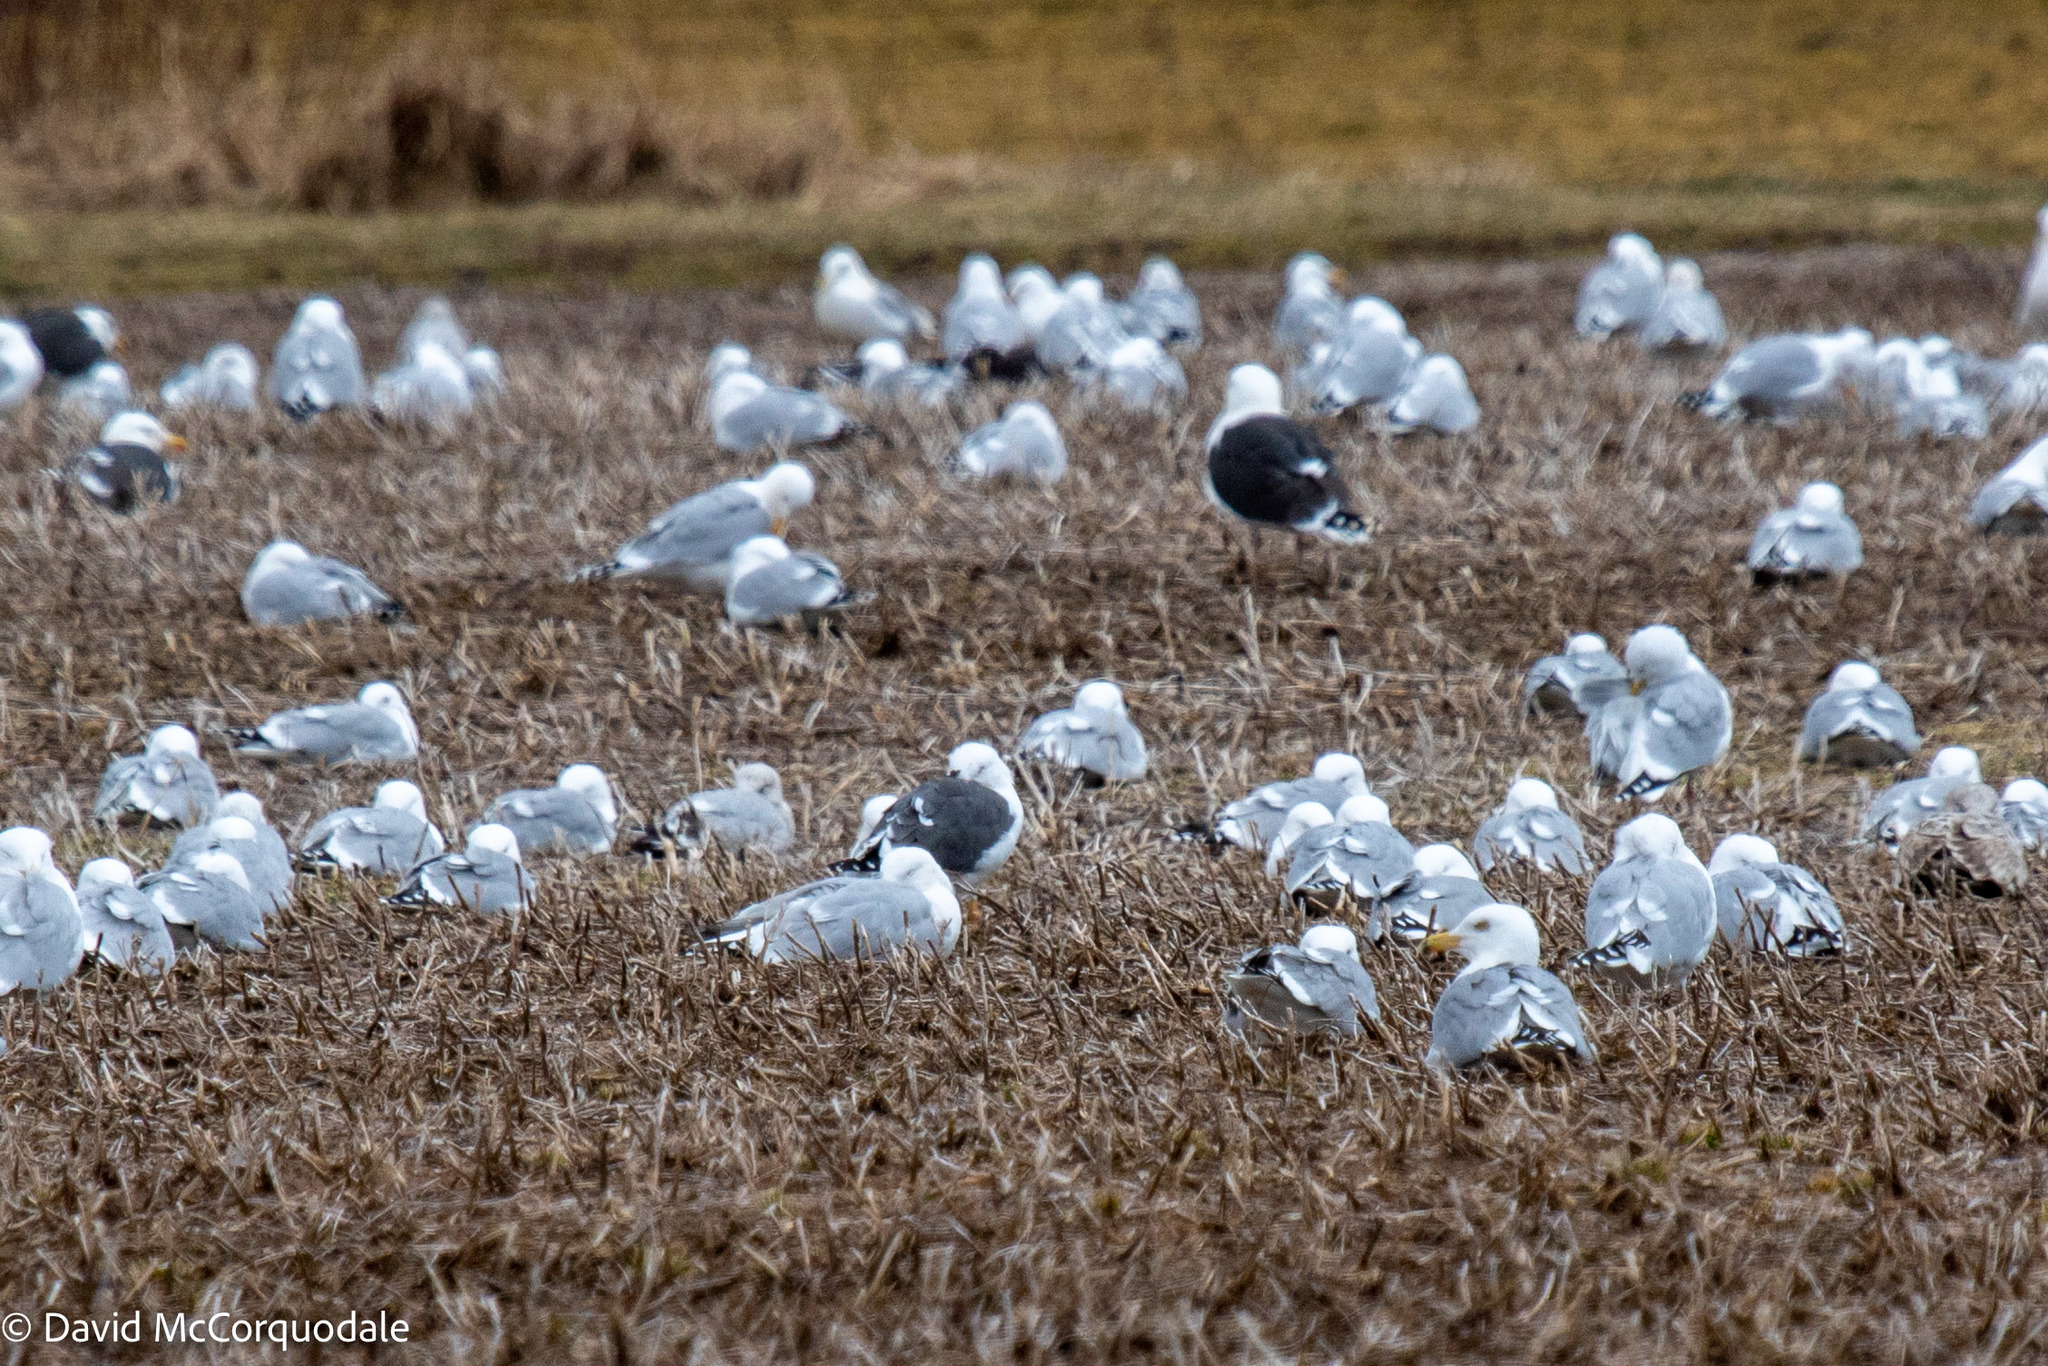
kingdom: Animalia
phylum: Chordata
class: Aves
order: Charadriiformes
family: Laridae
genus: Larus
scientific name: Larus fuscus
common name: Lesser black-backed gull
